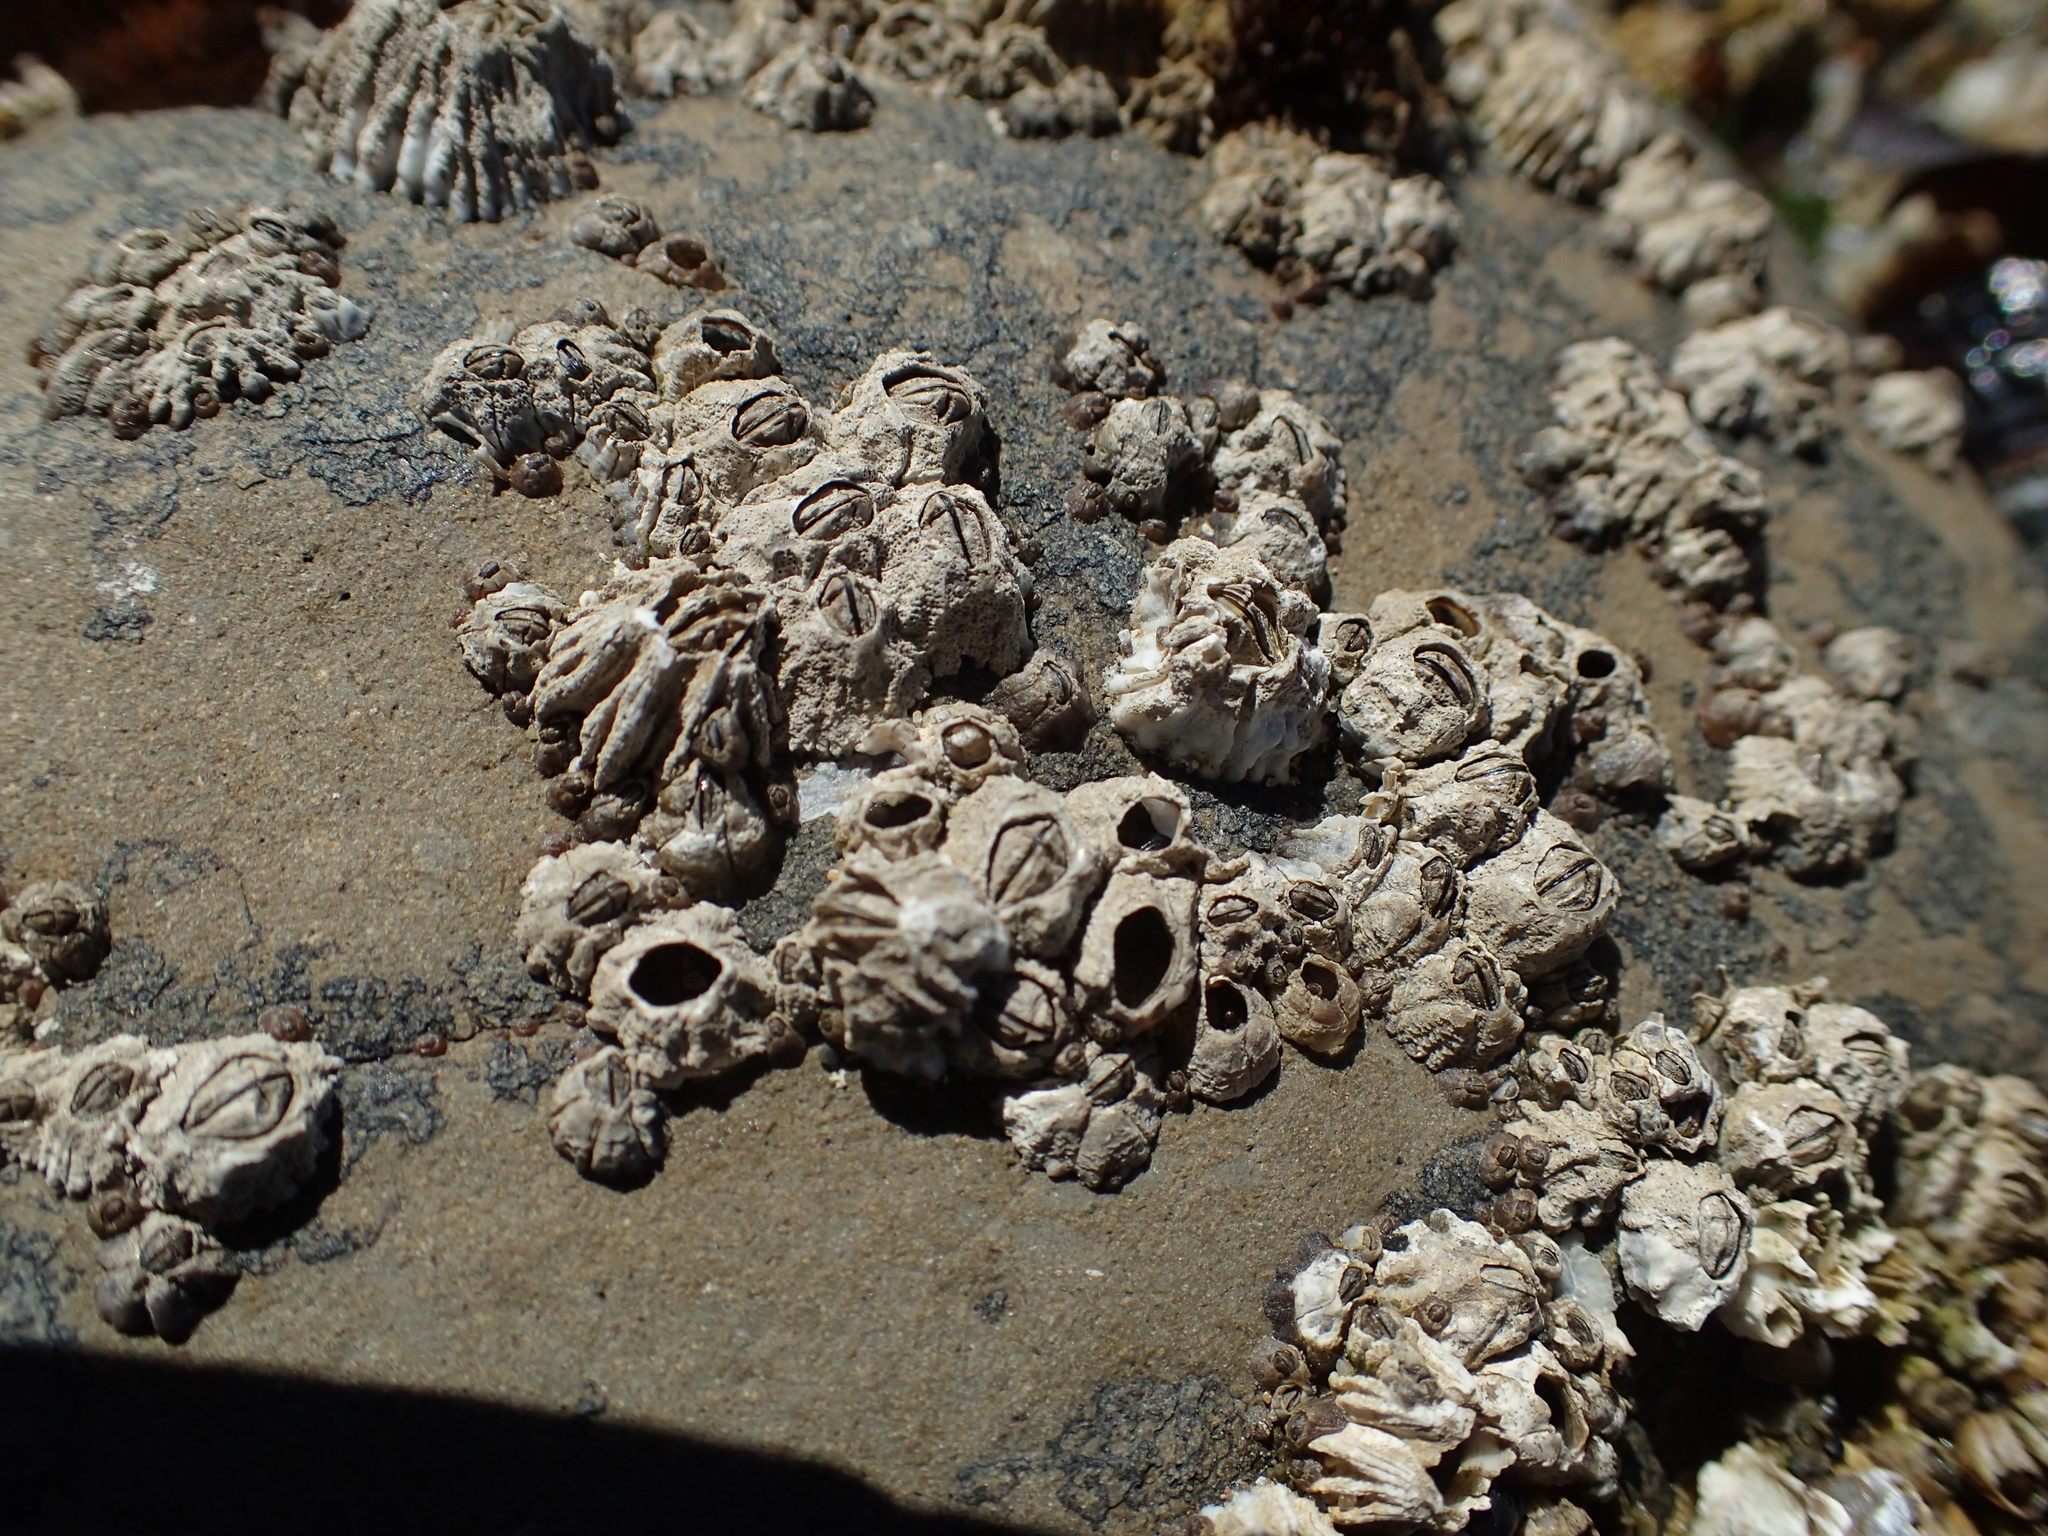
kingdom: Animalia
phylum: Arthropoda
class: Maxillopoda
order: Sessilia
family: Balanidae
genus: Balanus
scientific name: Balanus glandula
